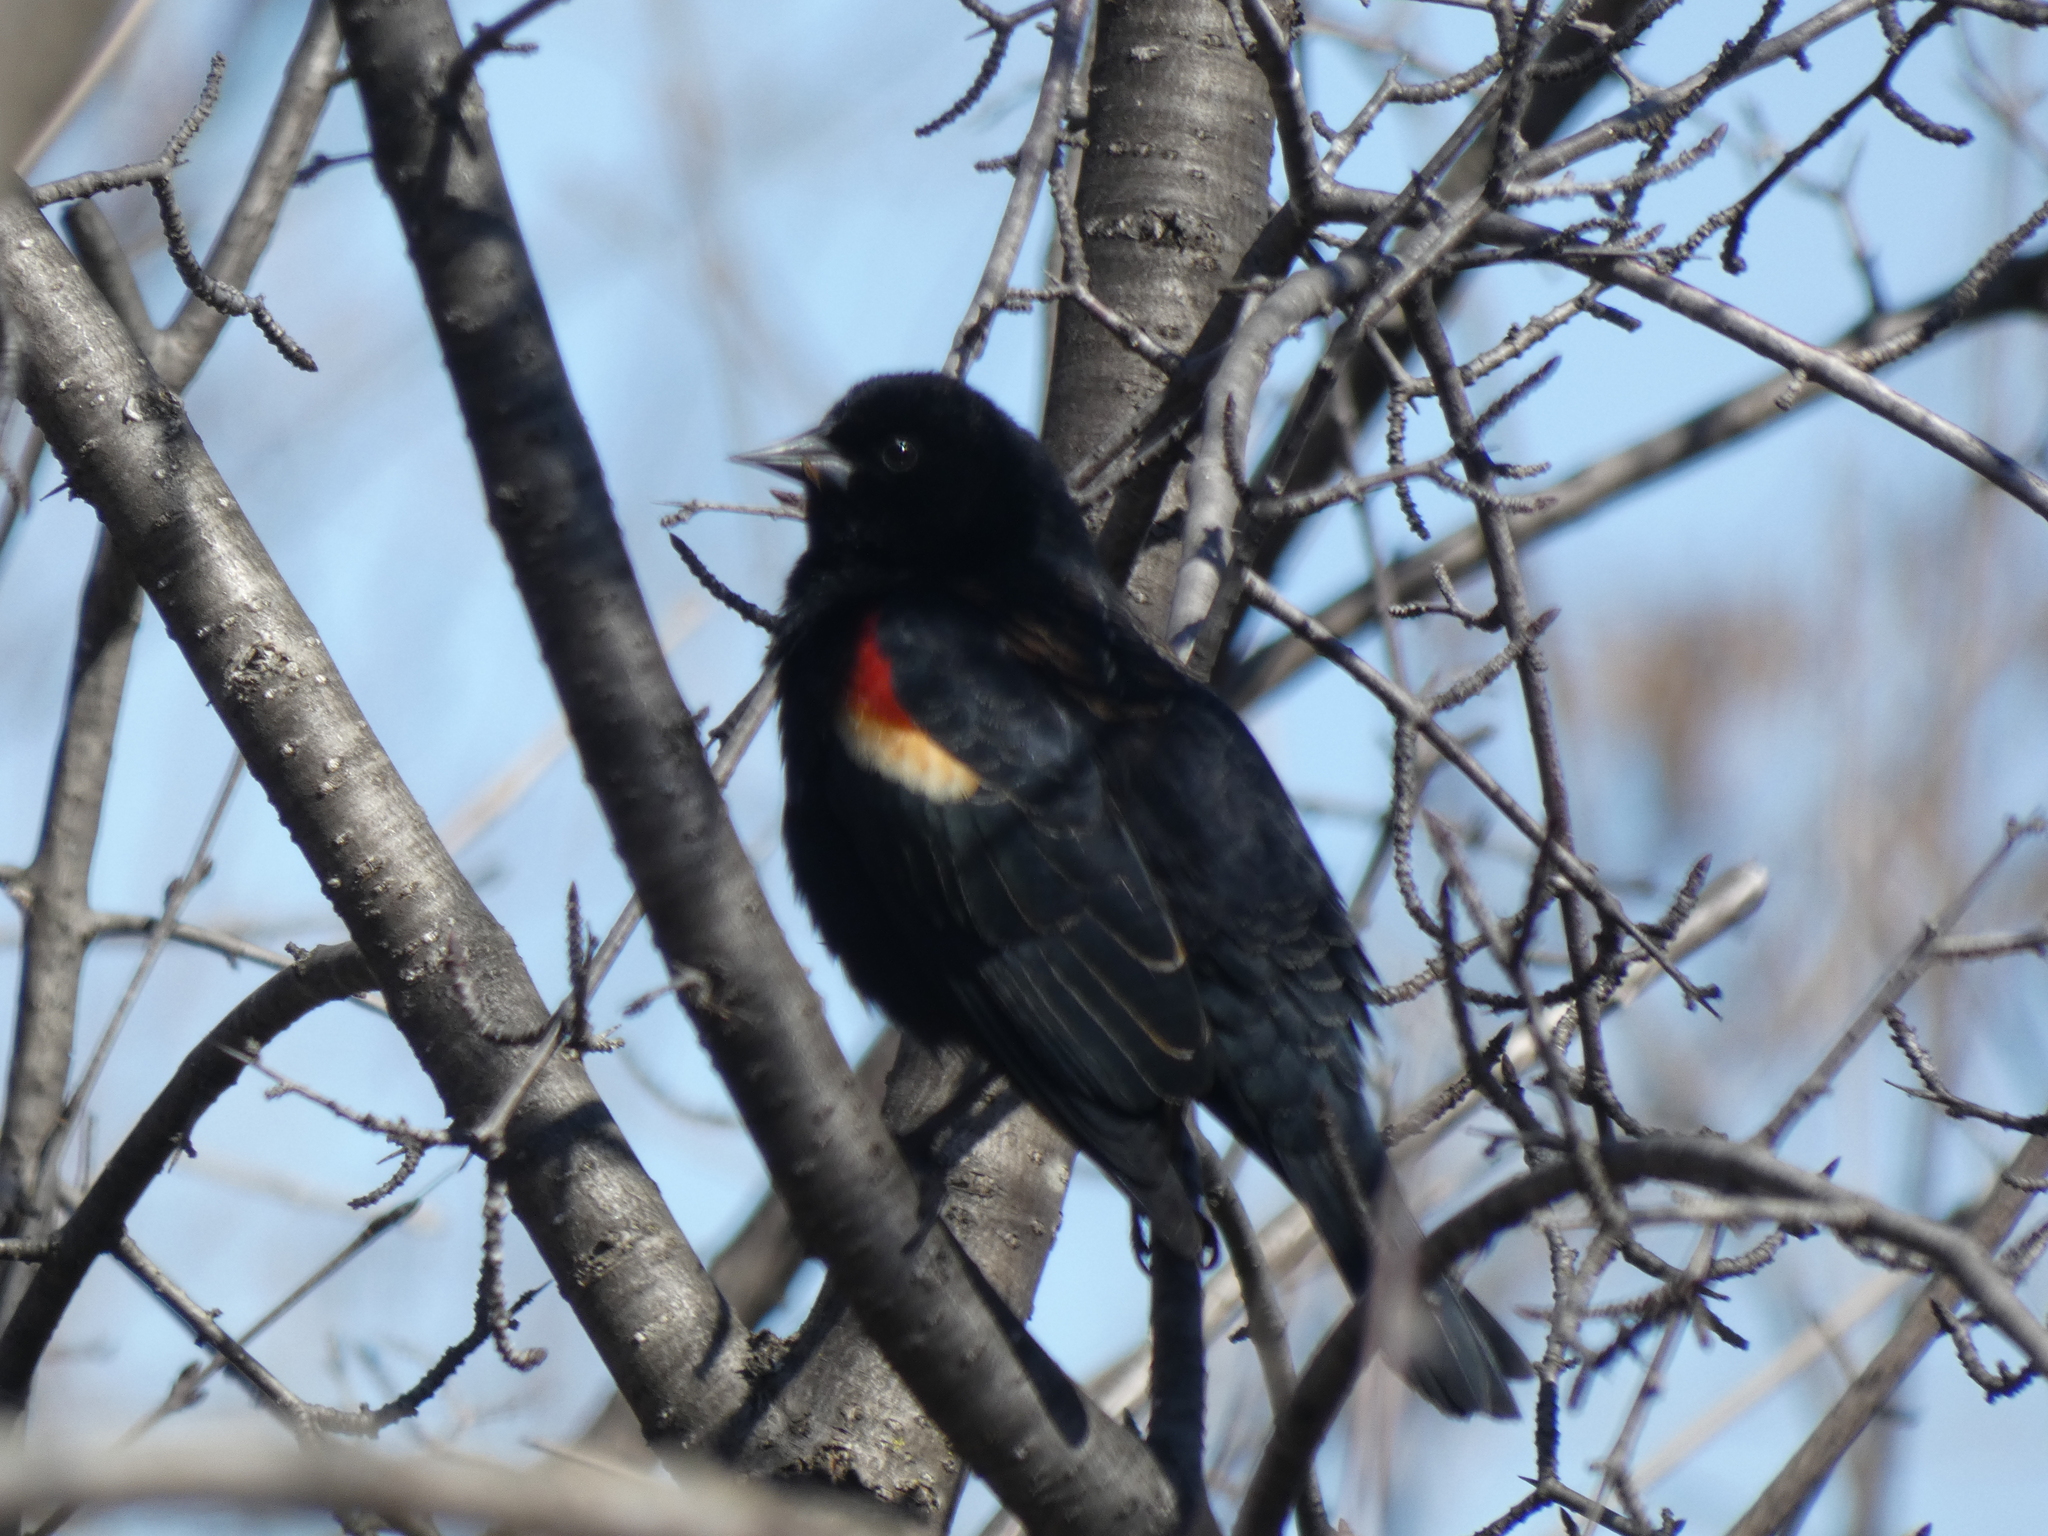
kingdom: Animalia
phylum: Chordata
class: Aves
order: Passeriformes
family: Icteridae
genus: Agelaius
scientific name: Agelaius phoeniceus
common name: Red-winged blackbird
